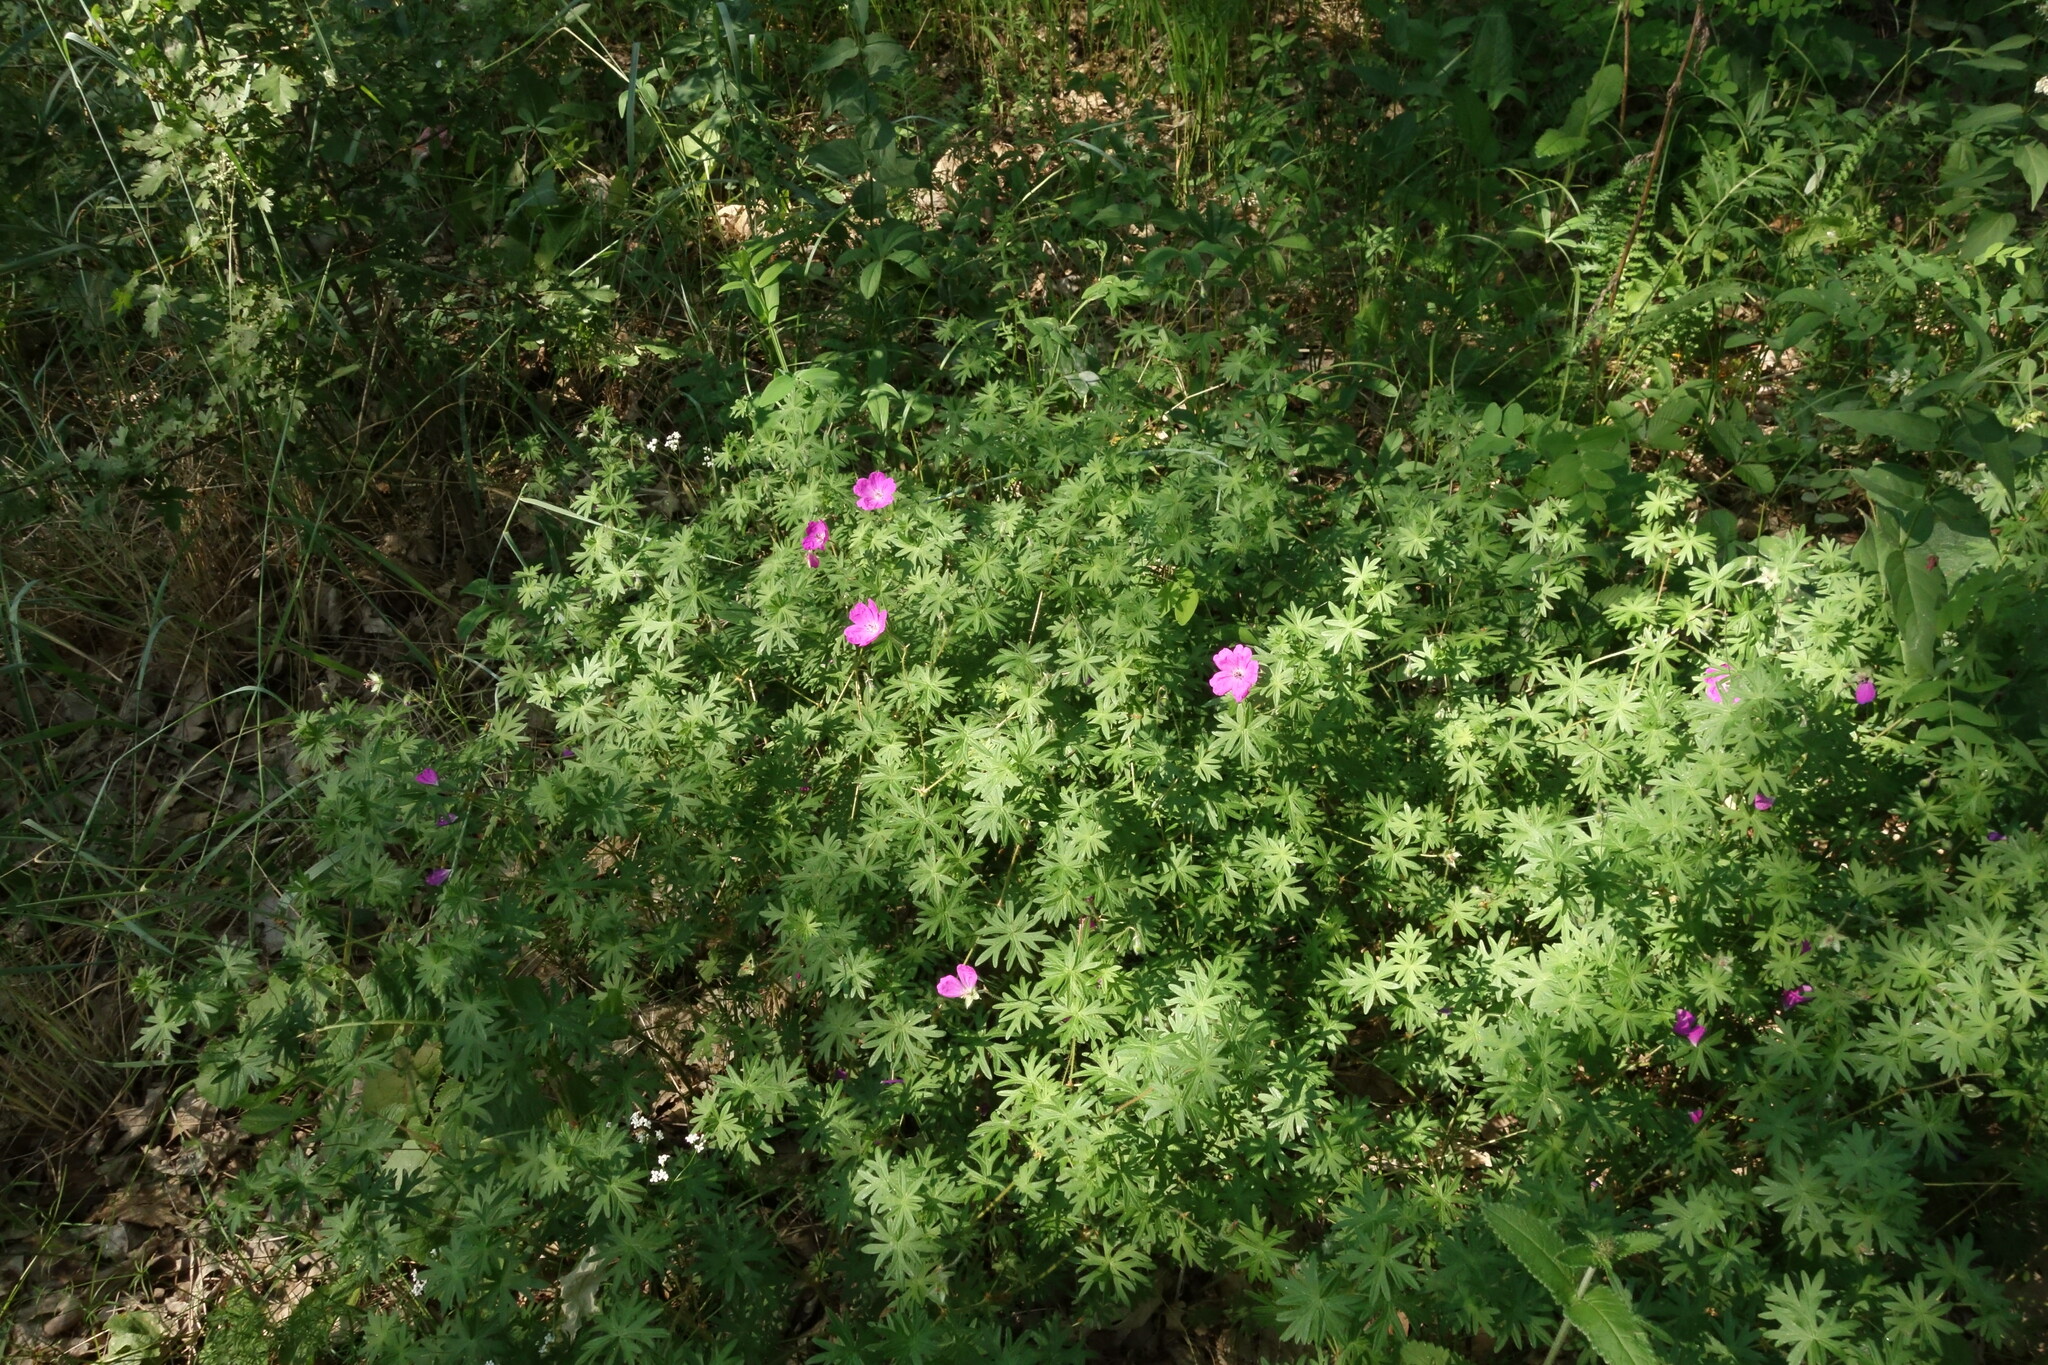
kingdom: Plantae
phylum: Tracheophyta
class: Magnoliopsida
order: Geraniales
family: Geraniaceae
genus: Geranium
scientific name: Geranium sanguineum
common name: Bloody crane's-bill
